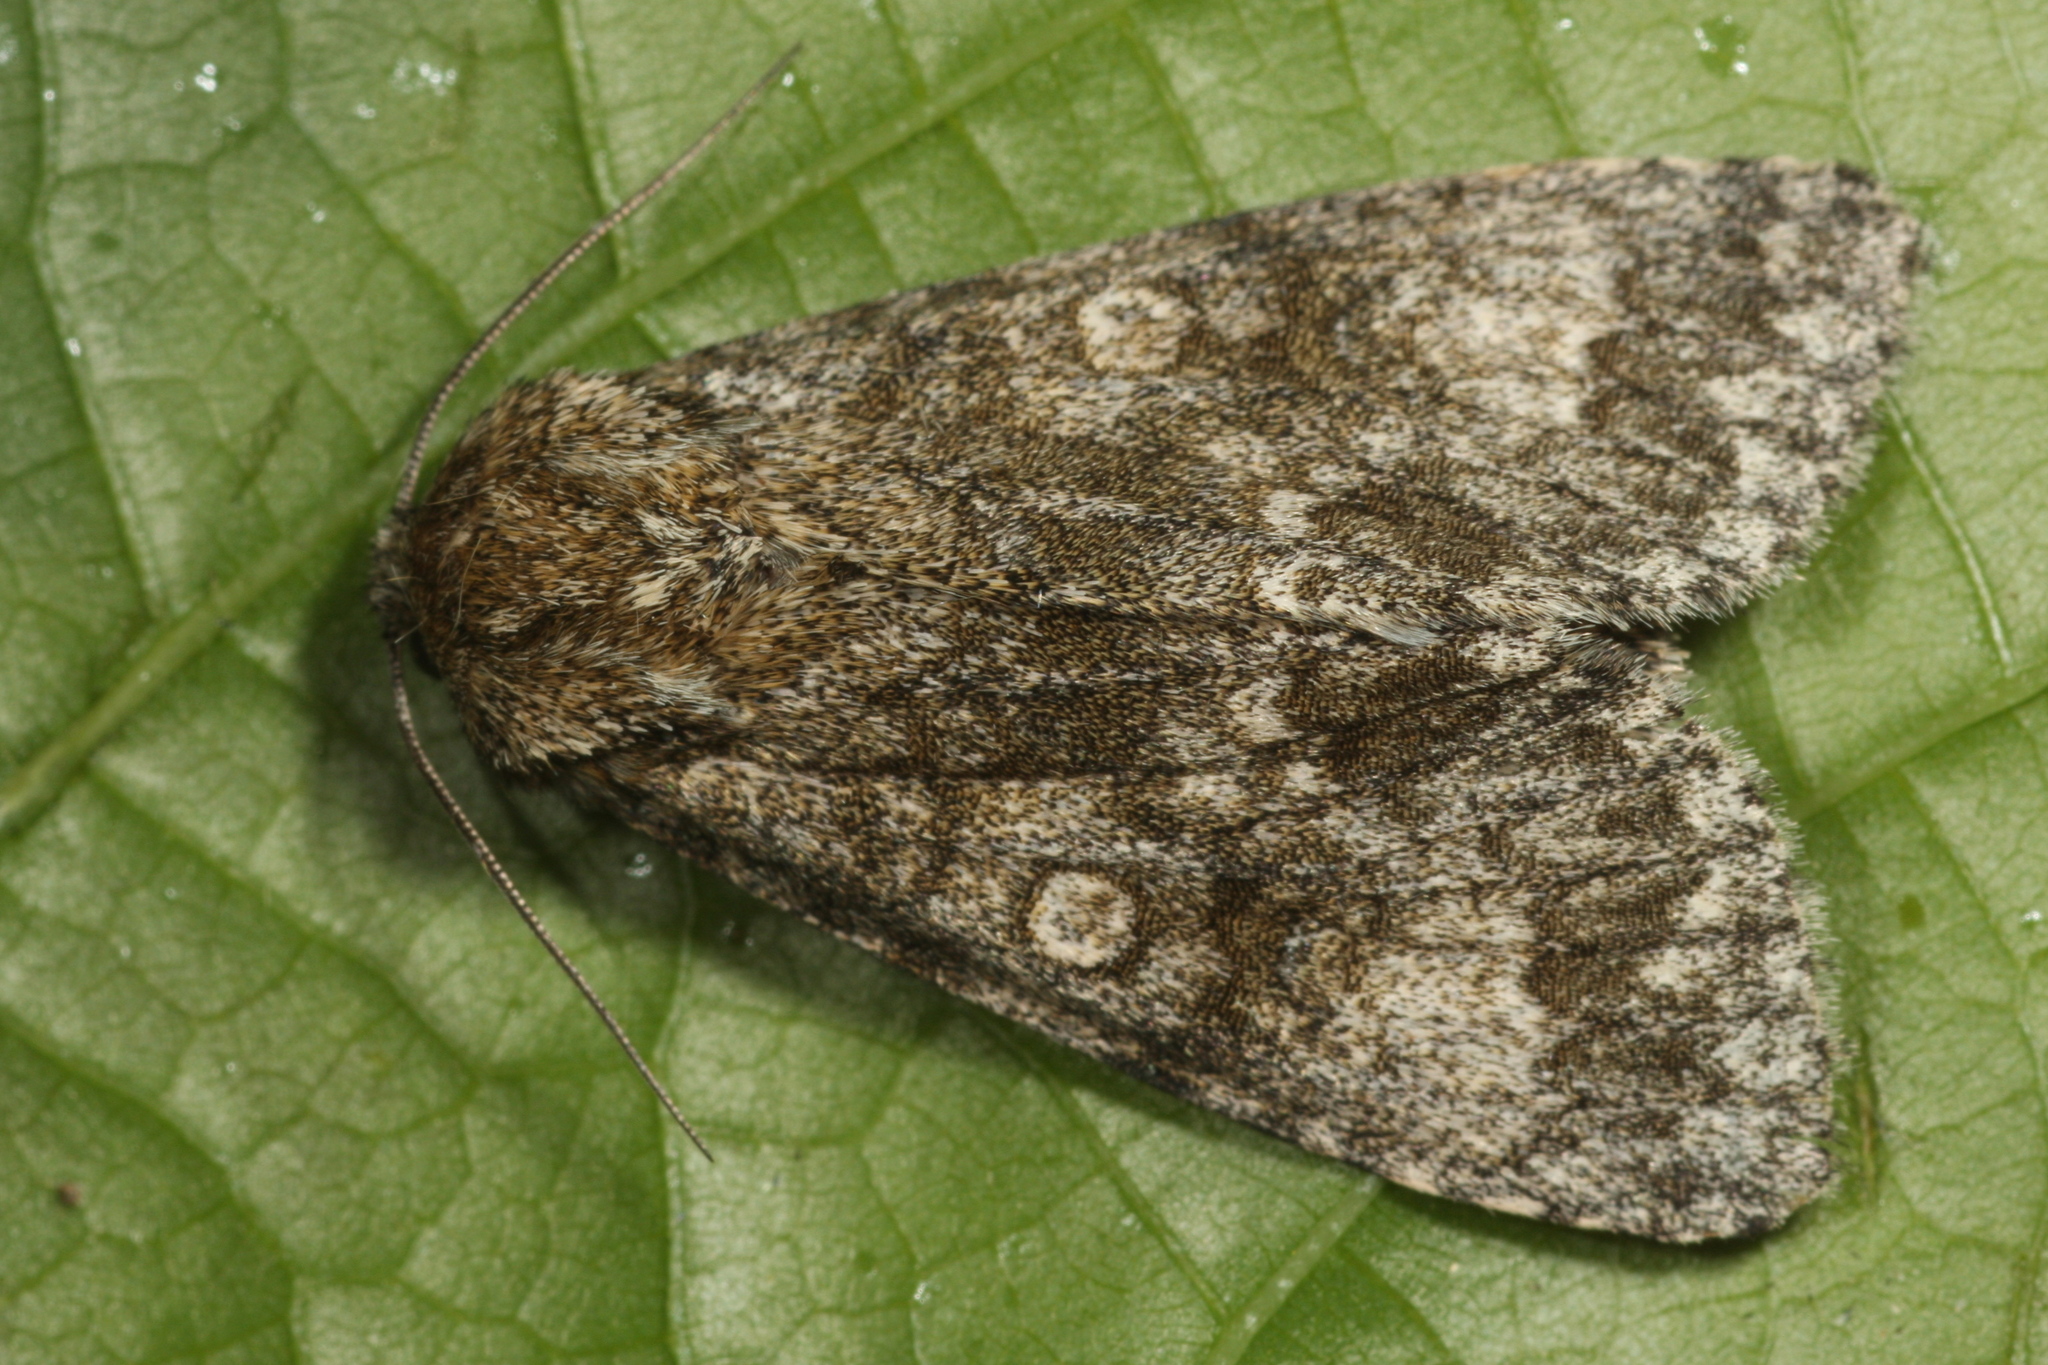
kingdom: Animalia
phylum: Arthropoda
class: Insecta
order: Lepidoptera
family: Noctuidae
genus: Acronicta
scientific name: Acronicta megacephala
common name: Poplar grey
